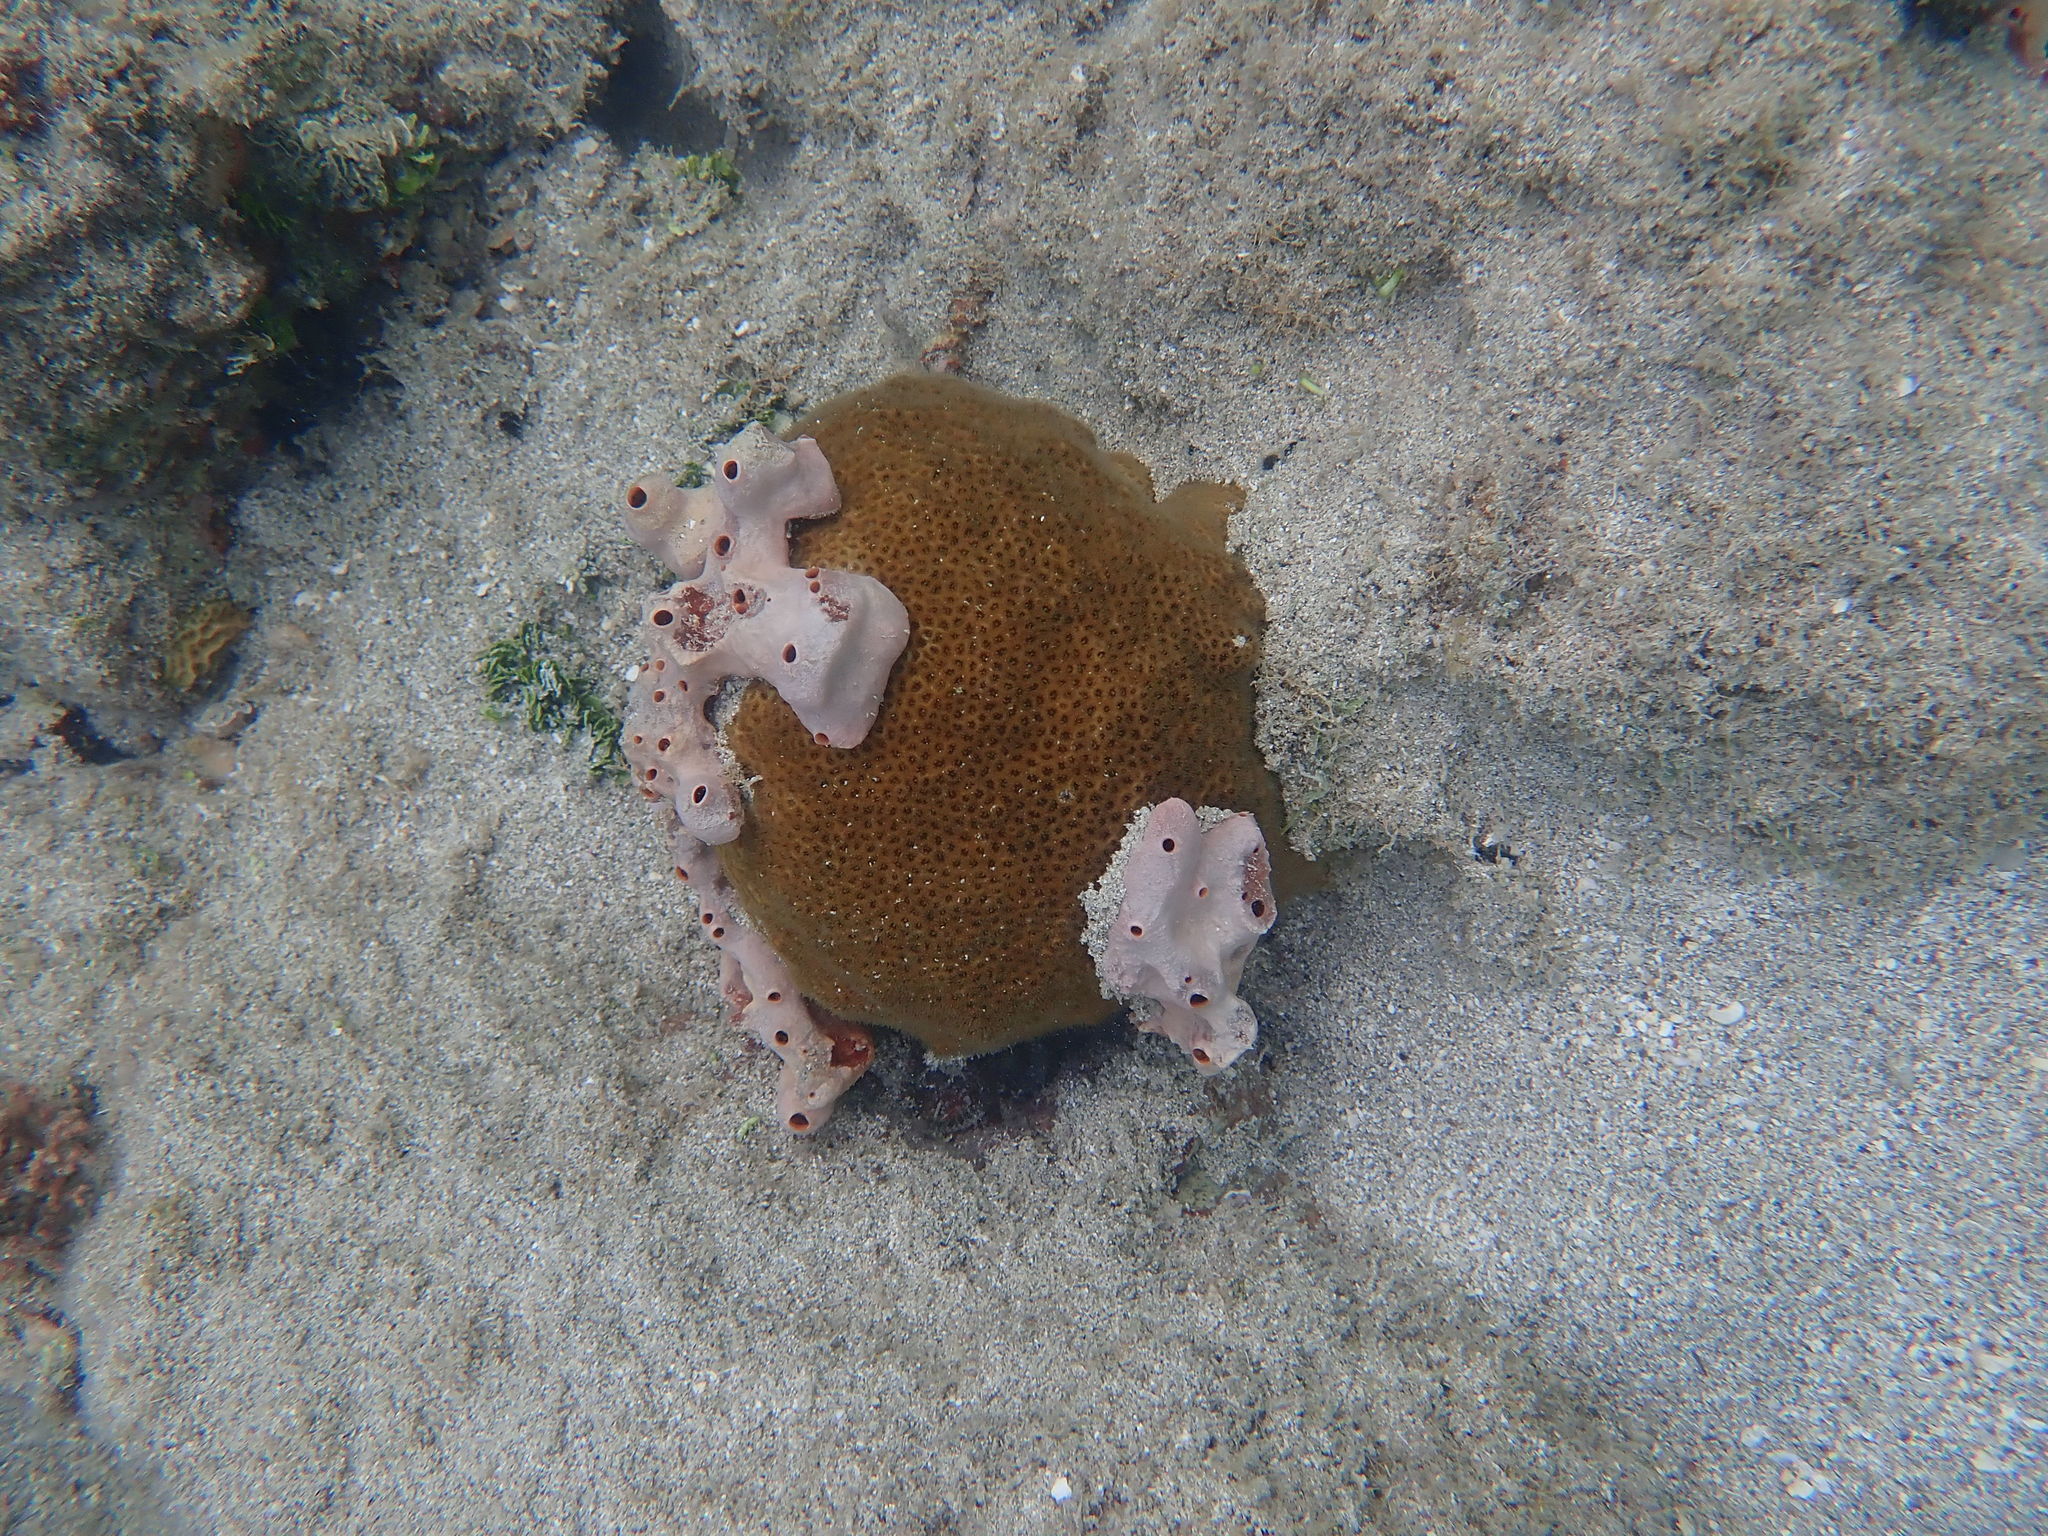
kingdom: Animalia
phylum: Cnidaria
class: Anthozoa
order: Scleractinia
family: Faviidae
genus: Solenastrea
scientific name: Solenastrea bournoni
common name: Smooth star coral
